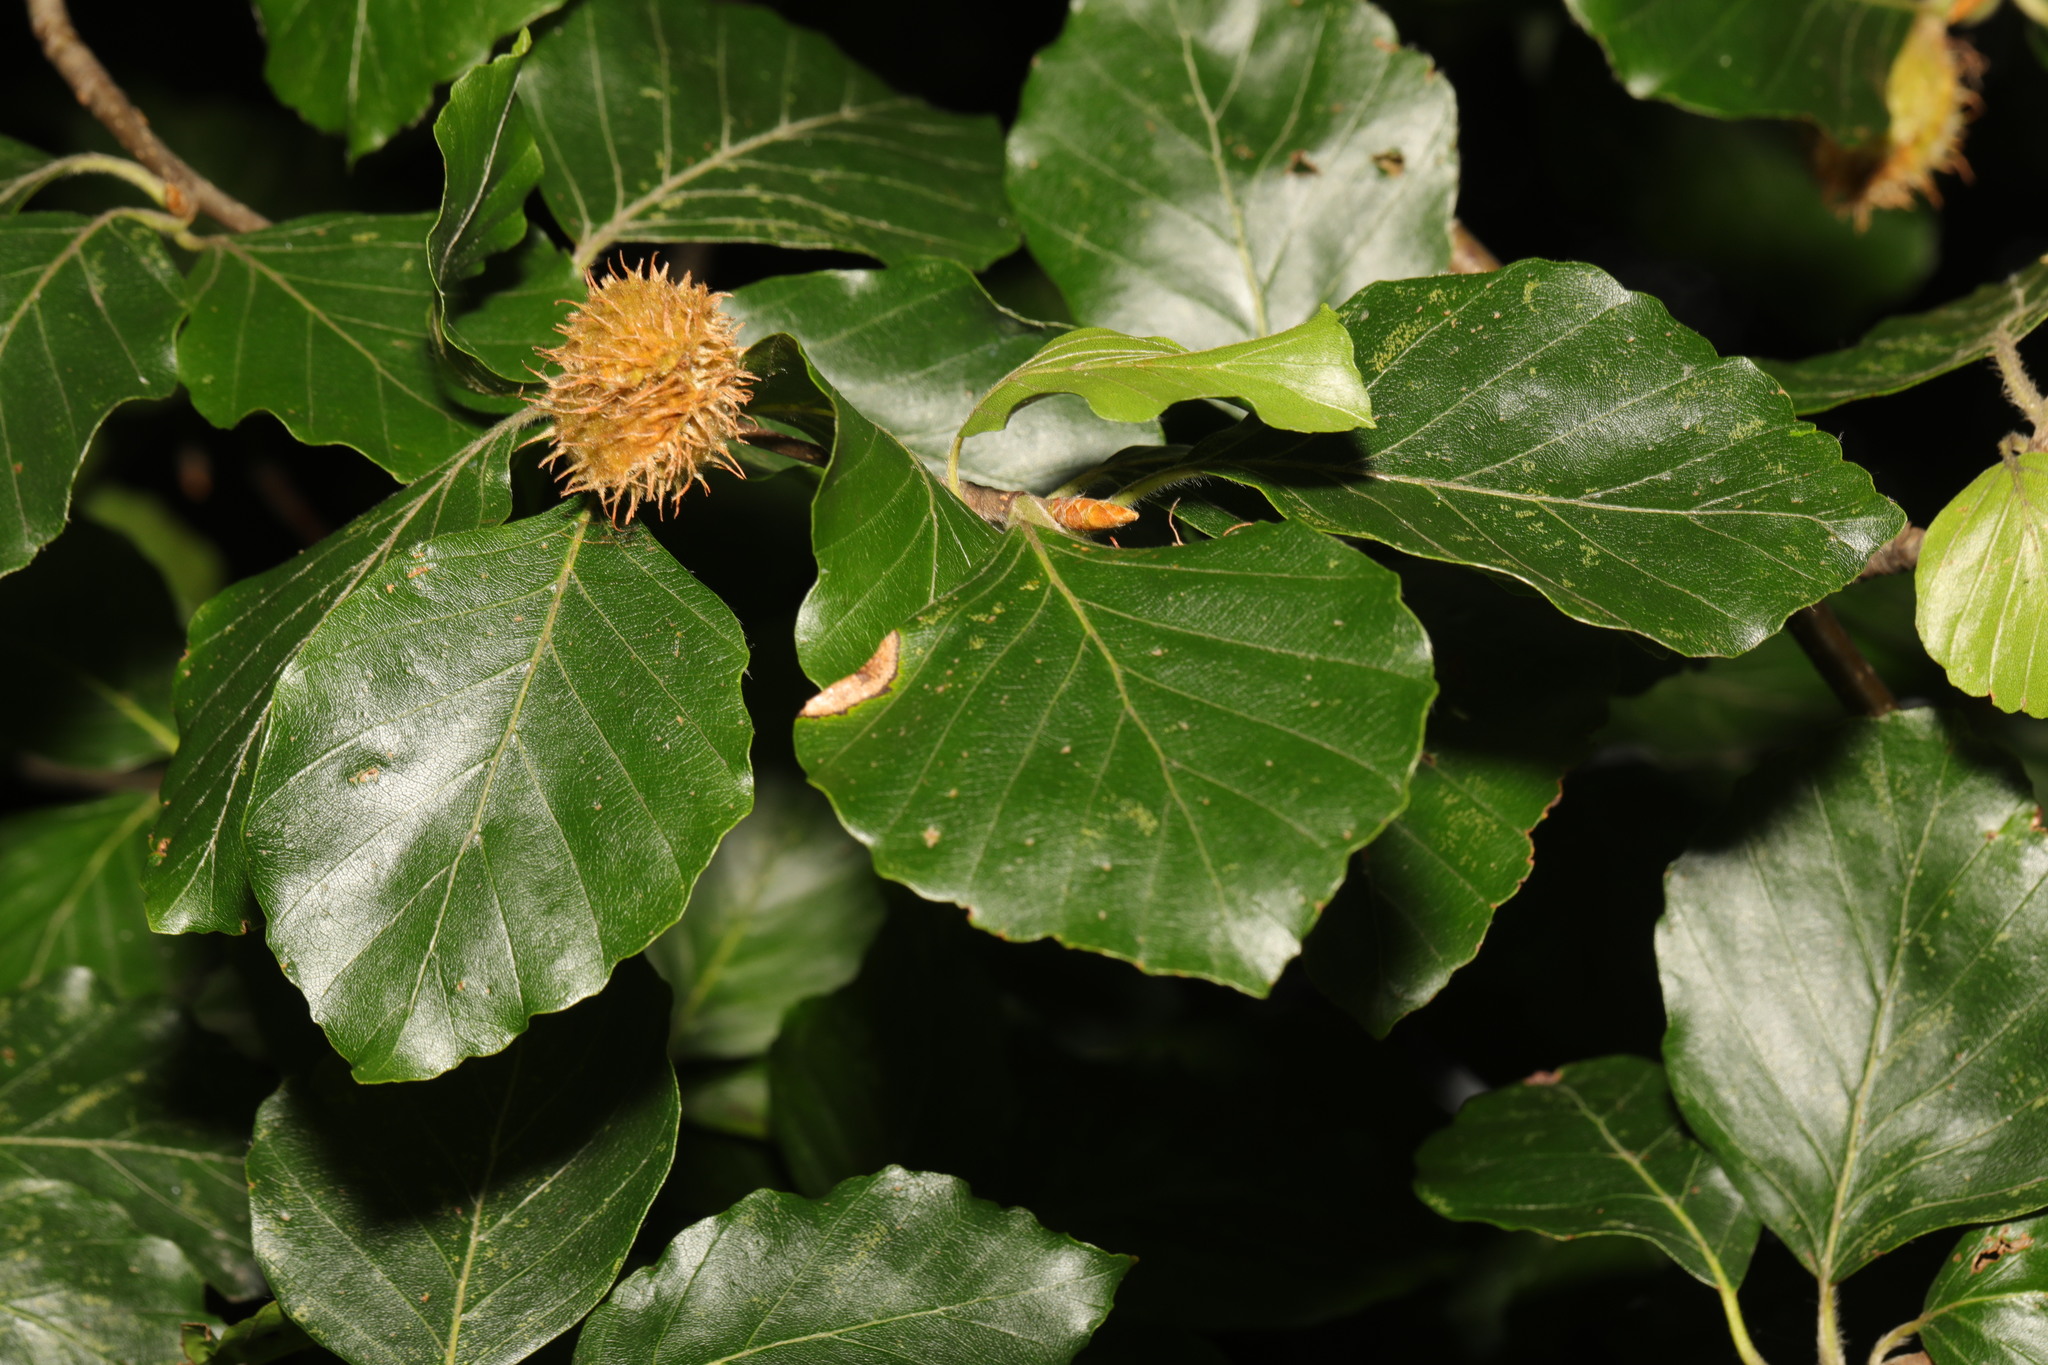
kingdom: Plantae
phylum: Tracheophyta
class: Magnoliopsida
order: Fagales
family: Fagaceae
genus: Fagus
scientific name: Fagus sylvatica
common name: Beech
